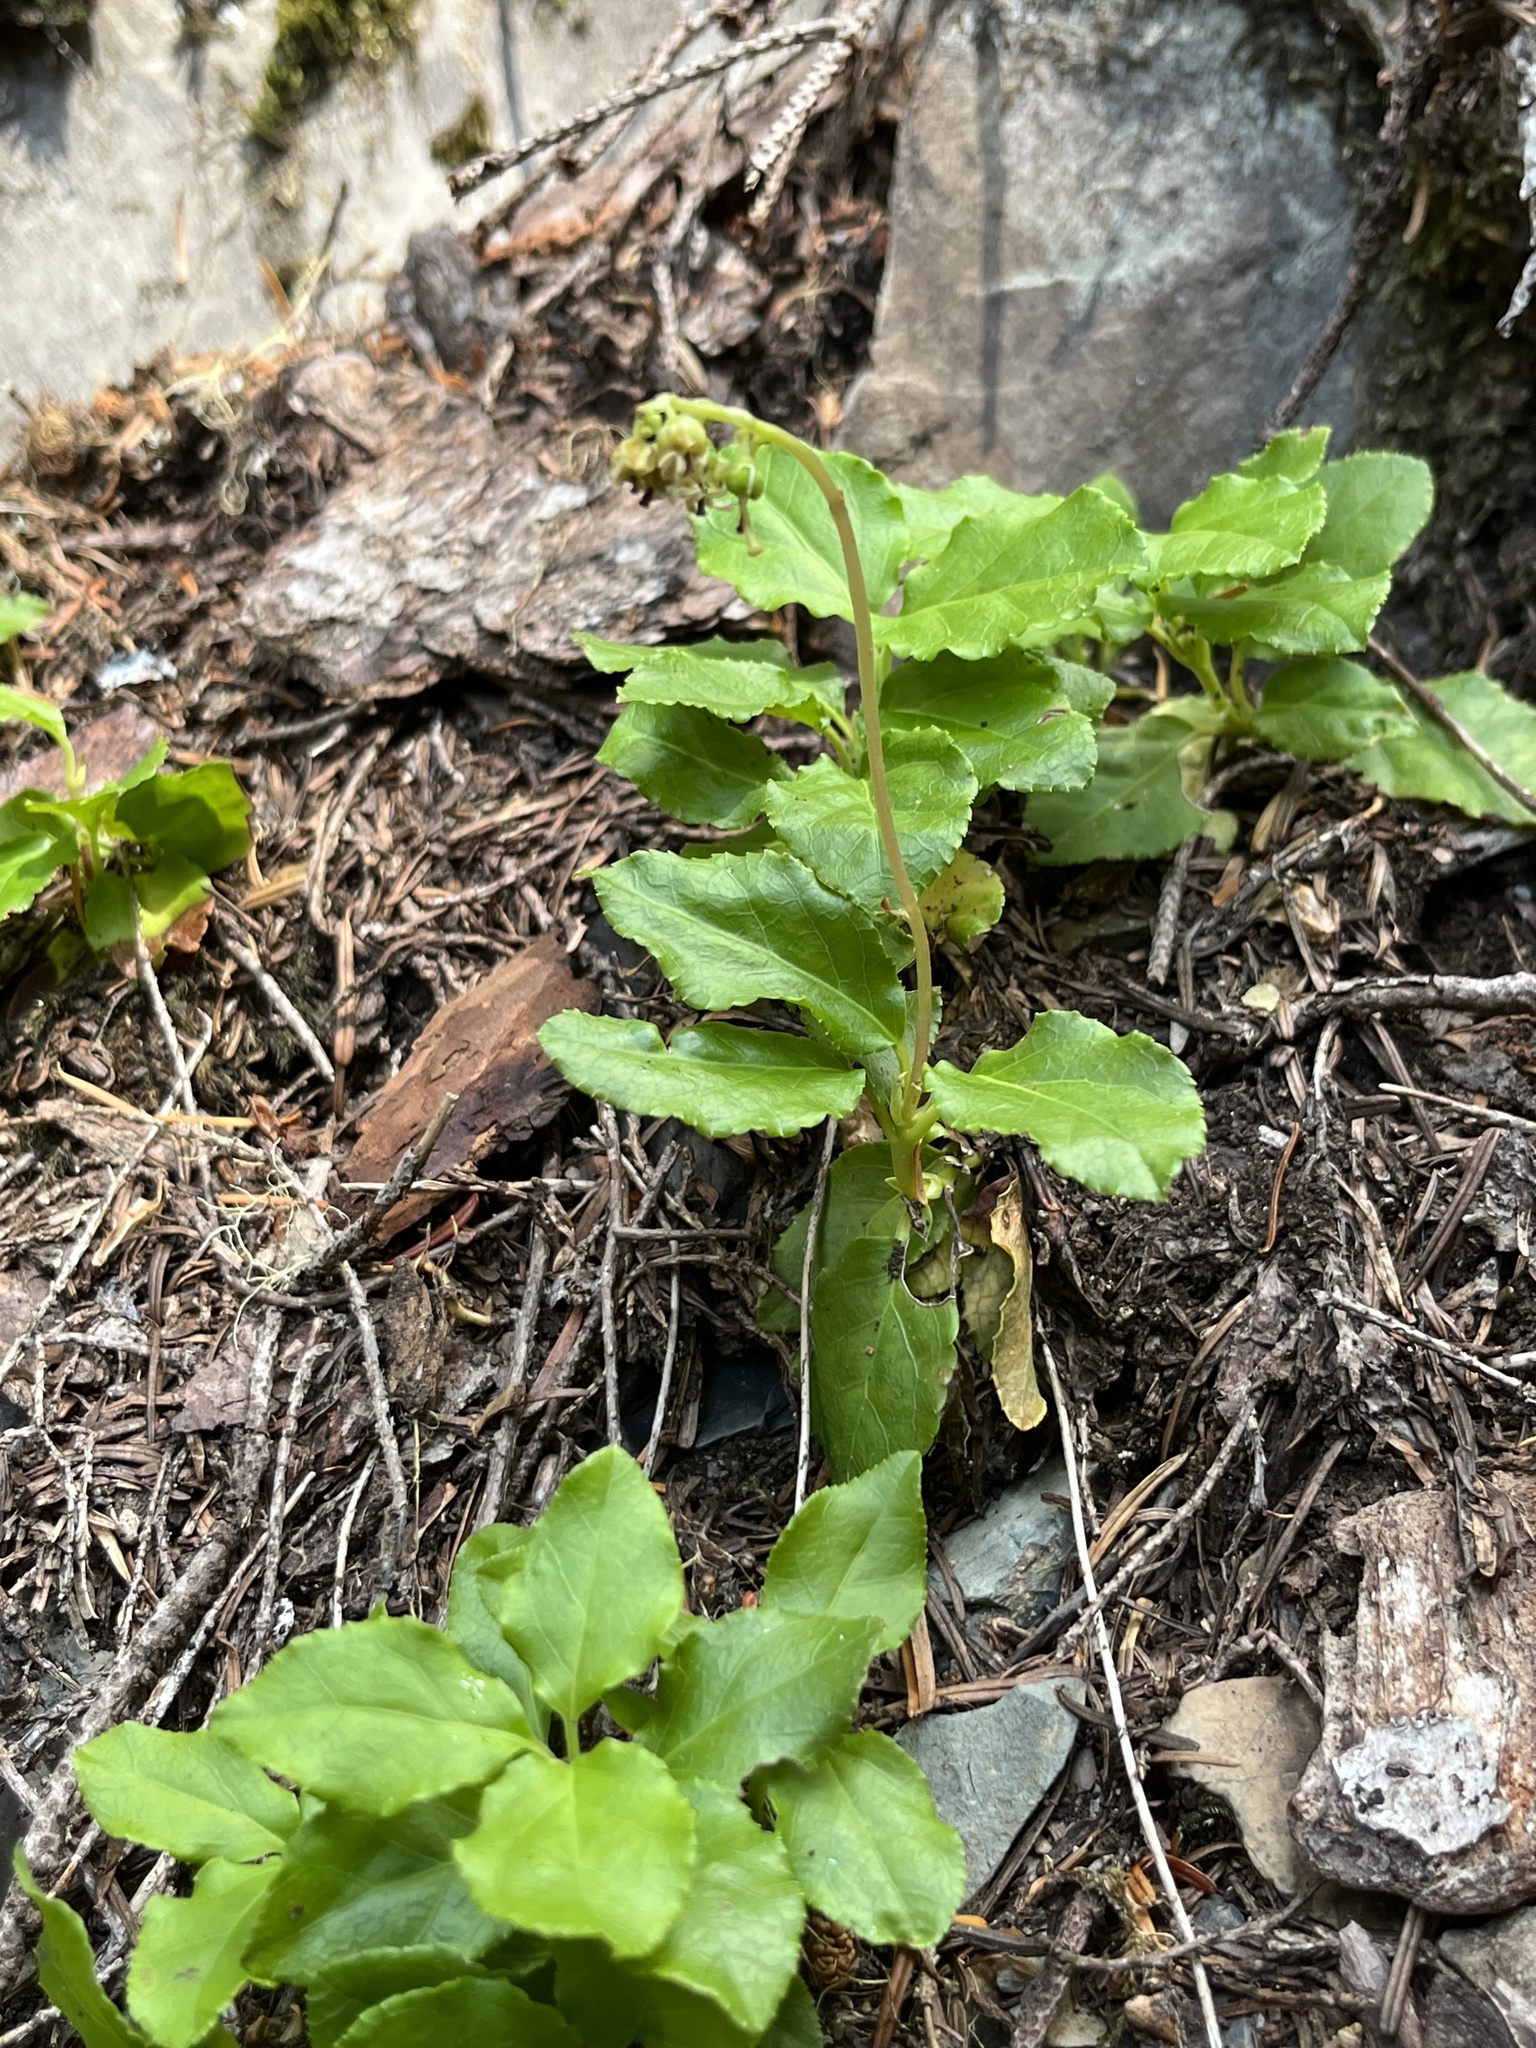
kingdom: Plantae
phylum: Tracheophyta
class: Magnoliopsida
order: Ericales
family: Ericaceae
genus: Orthilia
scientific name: Orthilia secunda
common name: One-sided orthilia
